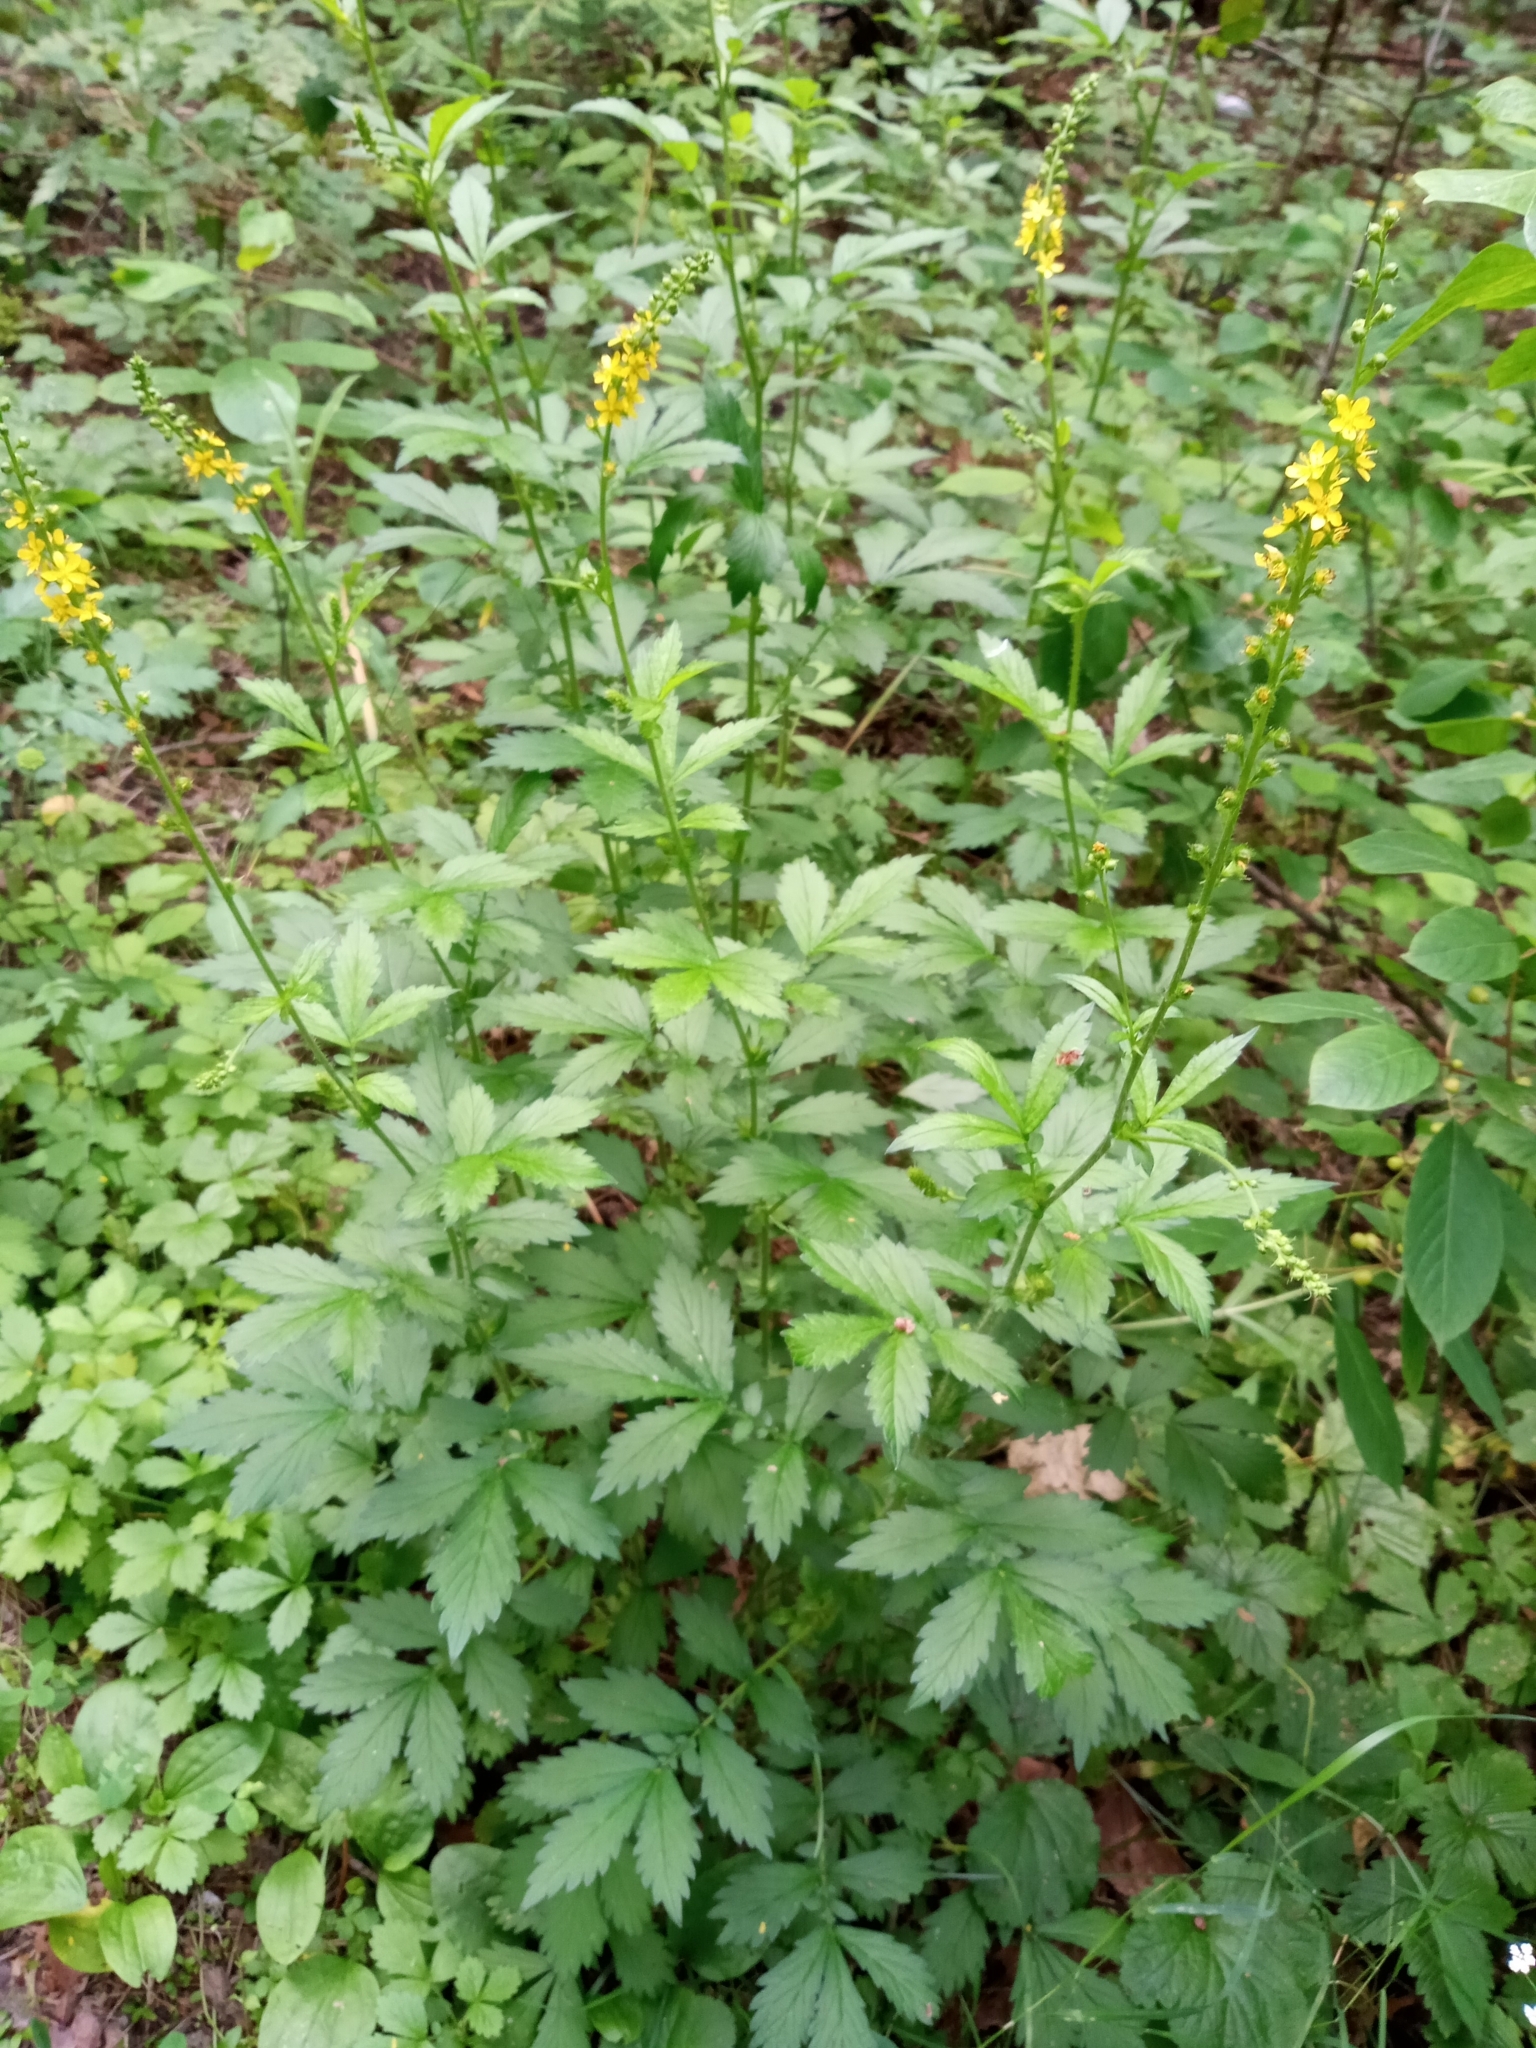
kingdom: Plantae
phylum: Tracheophyta
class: Magnoliopsida
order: Rosales
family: Rosaceae
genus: Agrimonia
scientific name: Agrimonia pilosa
